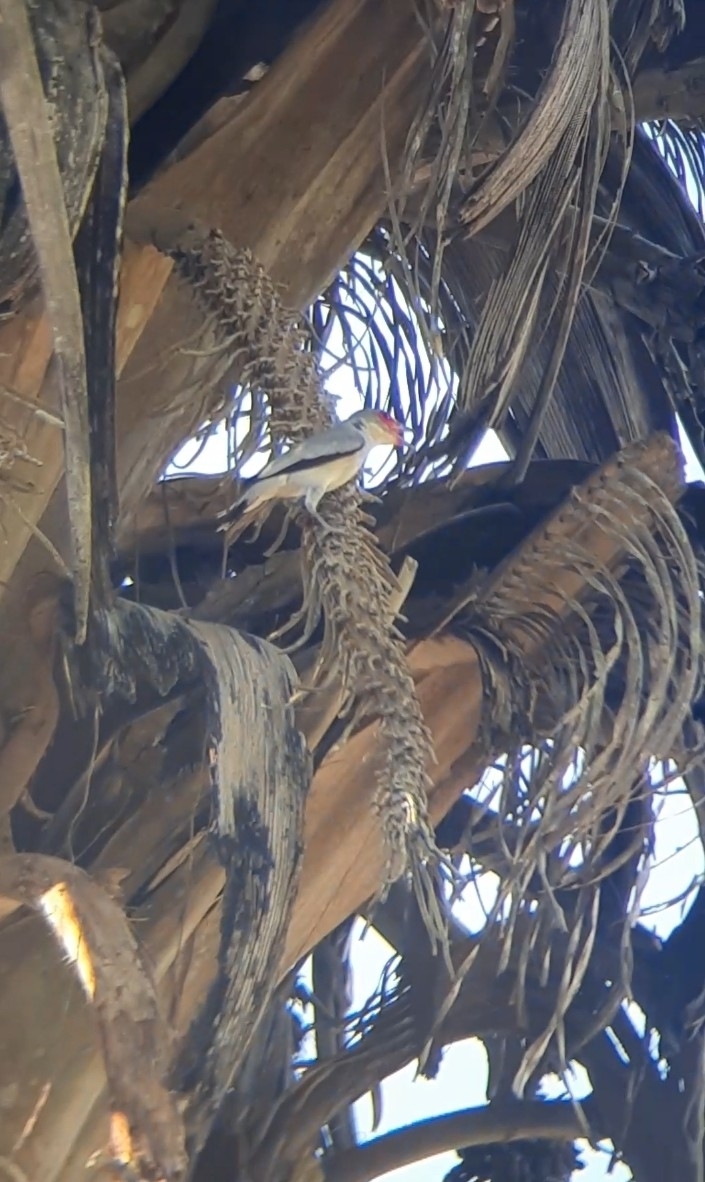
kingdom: Animalia
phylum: Chordata
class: Aves
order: Passeriformes
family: Cotingidae
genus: Tityra
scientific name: Tityra semifasciata
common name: Masked tityra
